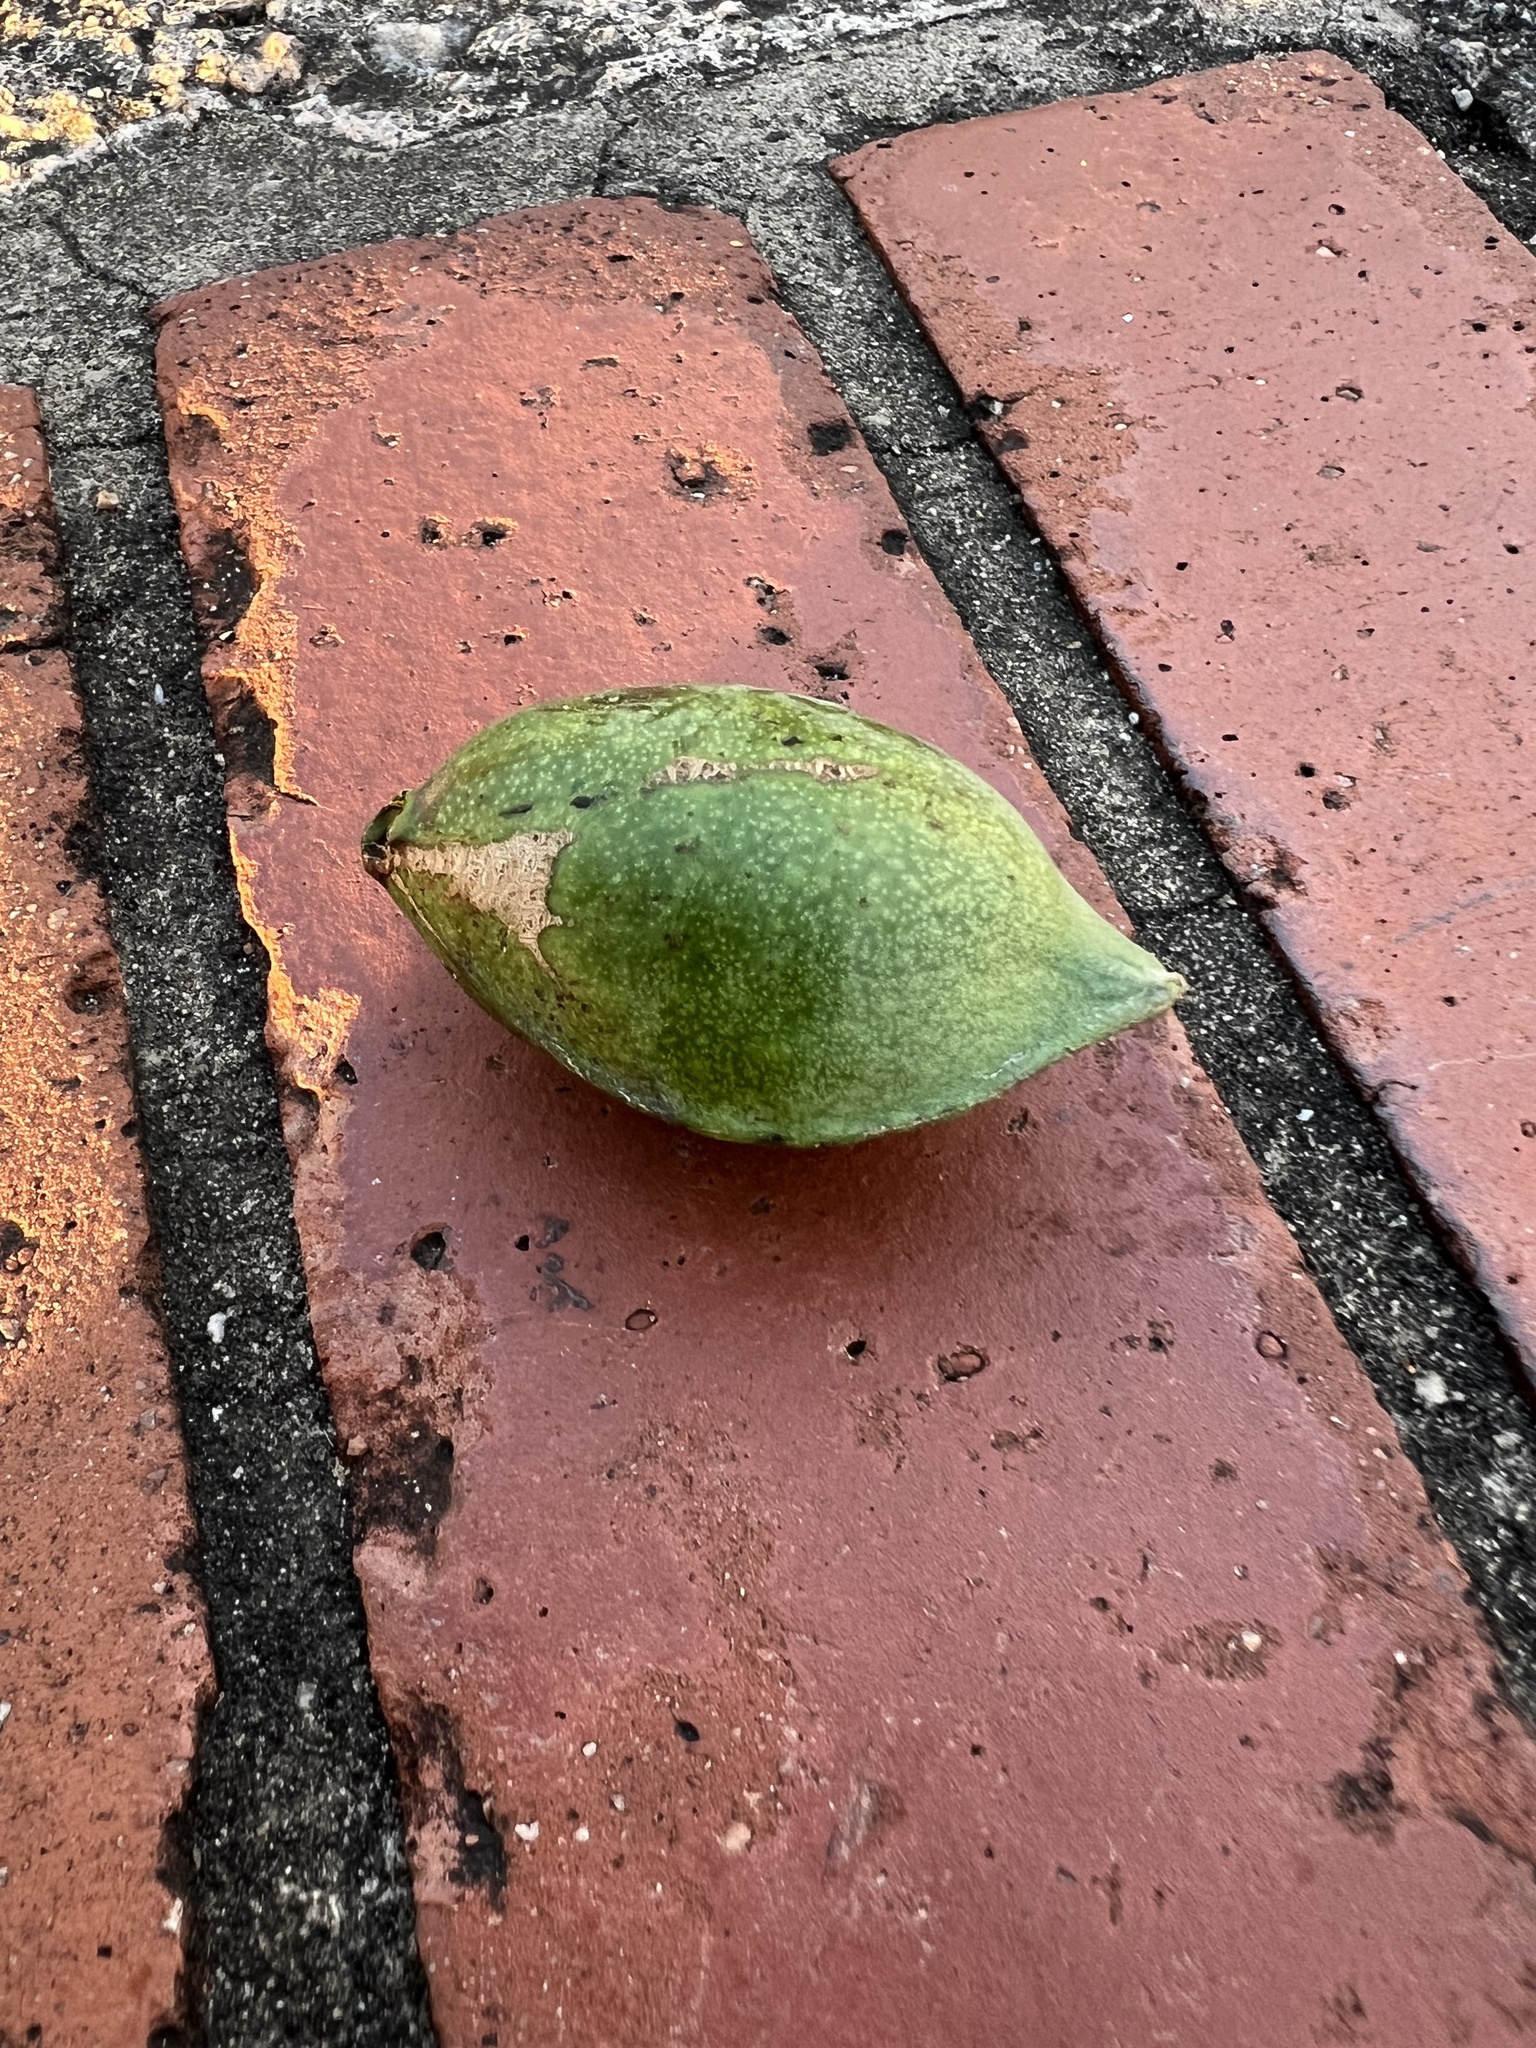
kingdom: Plantae
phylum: Tracheophyta
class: Magnoliopsida
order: Myrtales
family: Combretaceae
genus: Terminalia
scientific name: Terminalia catappa
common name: Tropical almond
